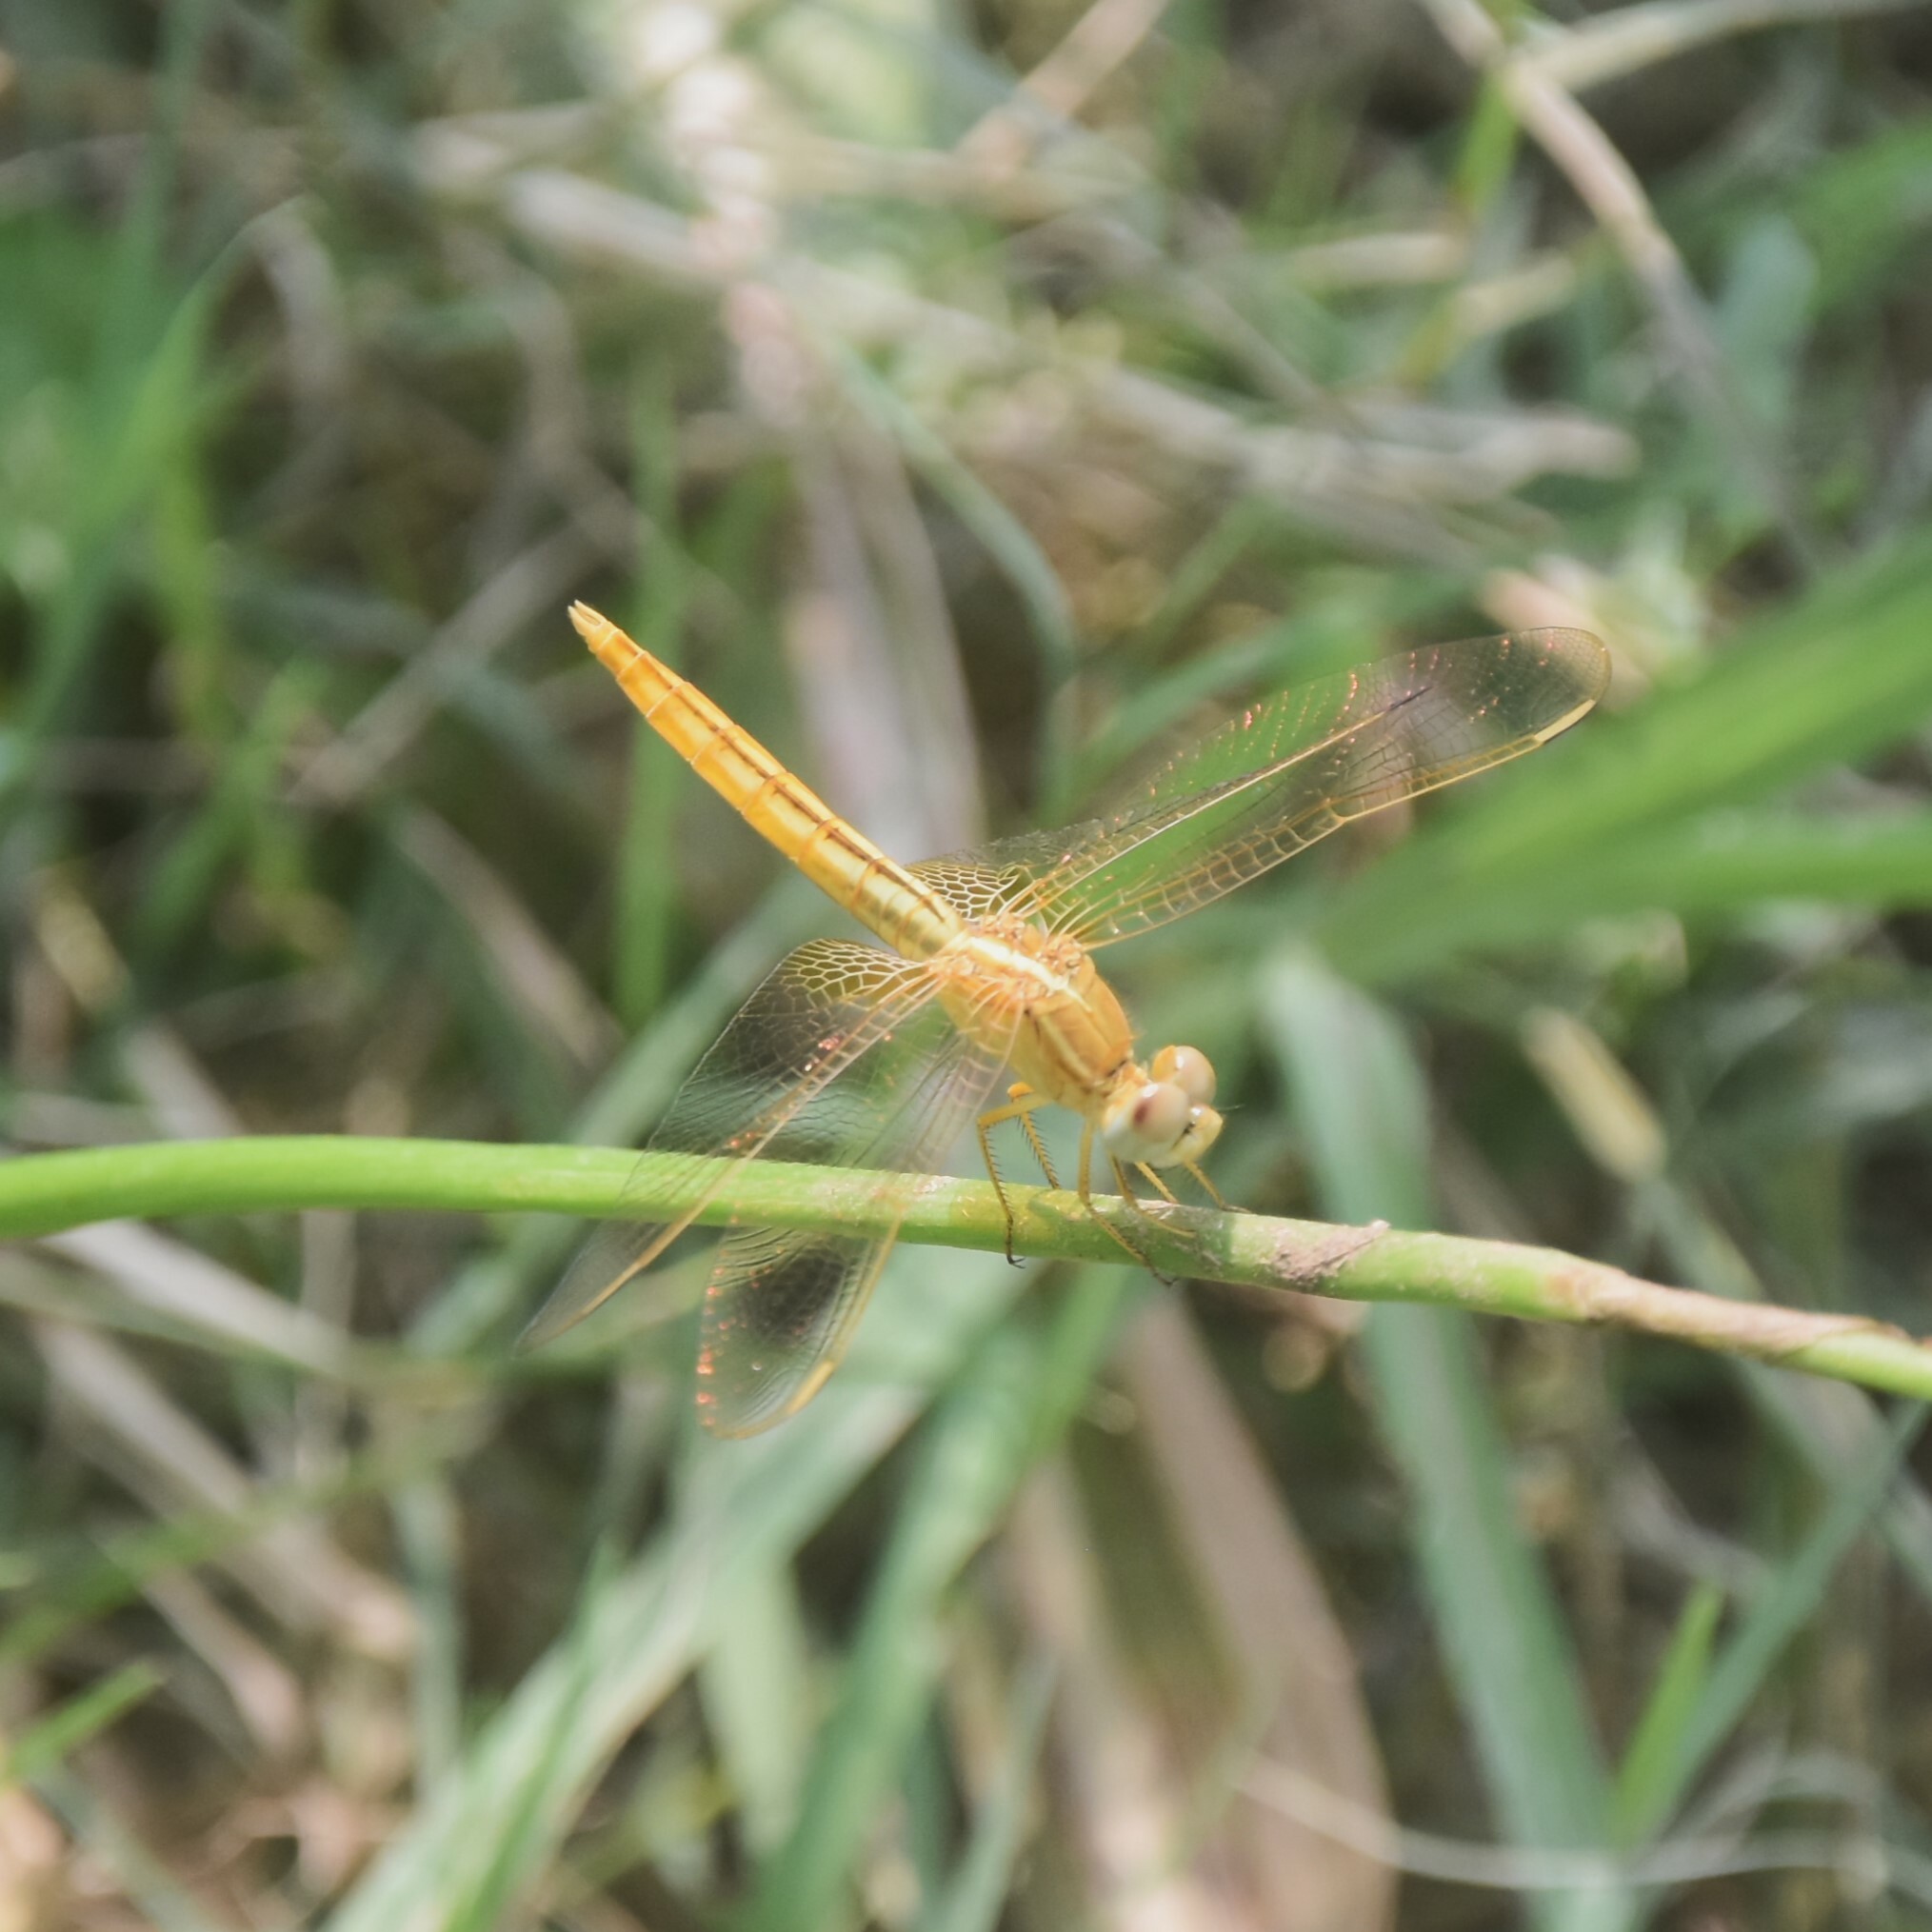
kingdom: Animalia
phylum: Arthropoda
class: Insecta
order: Odonata
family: Libellulidae
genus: Crocothemis
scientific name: Crocothemis servilia
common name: Scarlet skimmer
